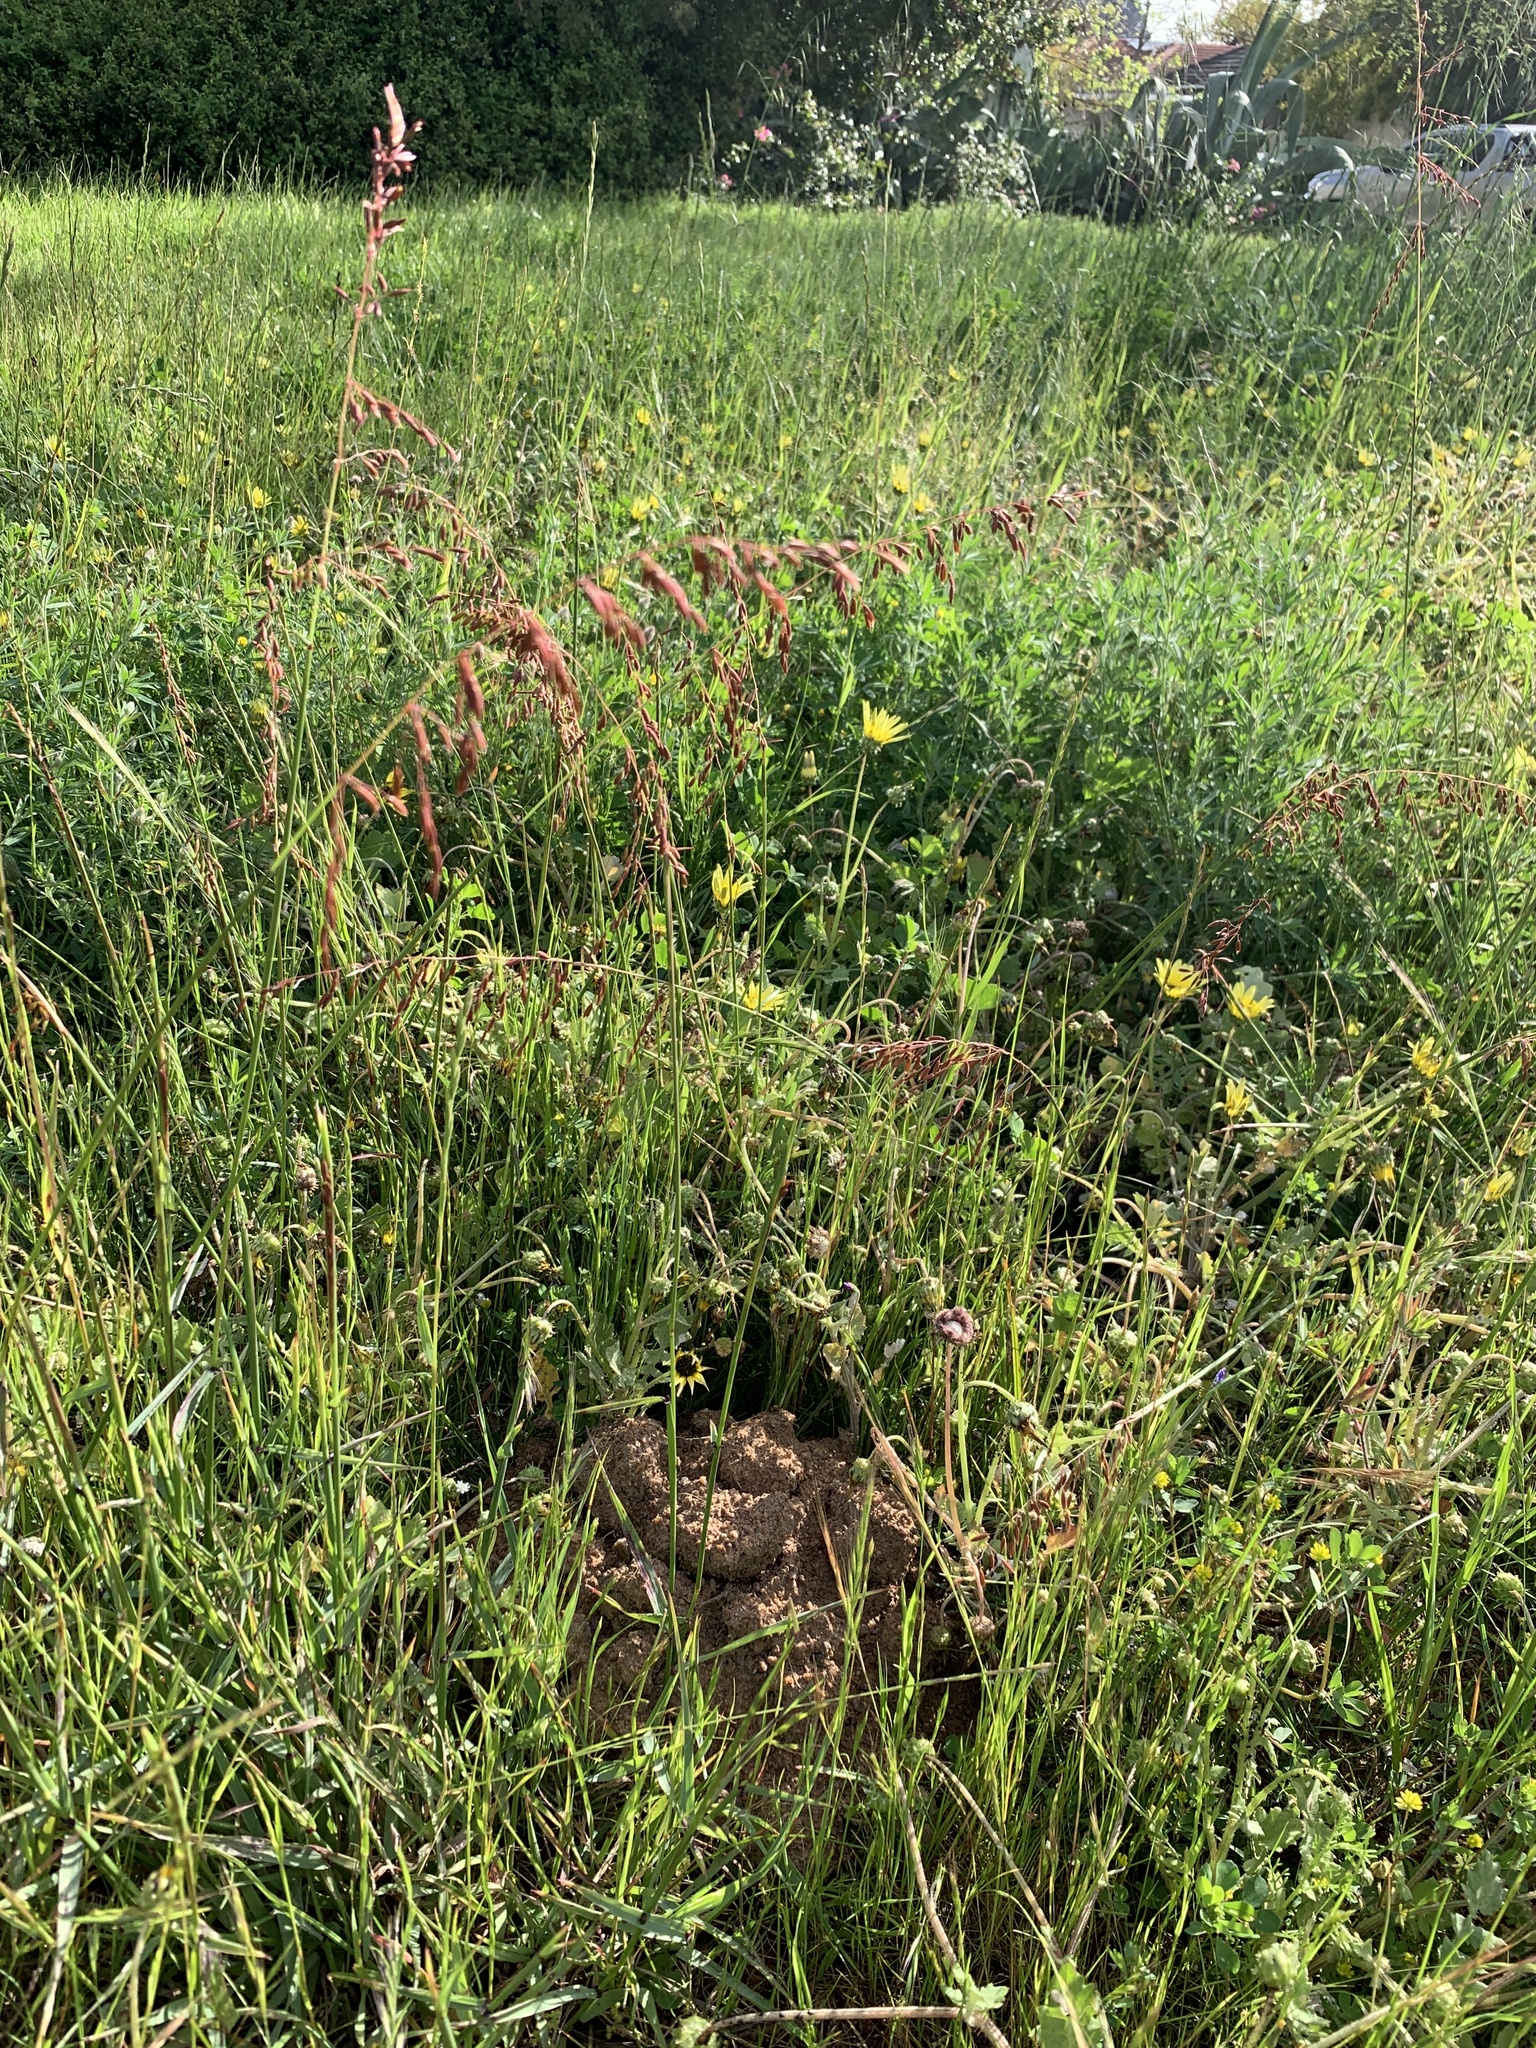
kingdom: Plantae
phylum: Tracheophyta
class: Liliopsida
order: Poales
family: Poaceae
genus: Ehrharta
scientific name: Ehrharta calycina
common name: Perennial veldtgrass
